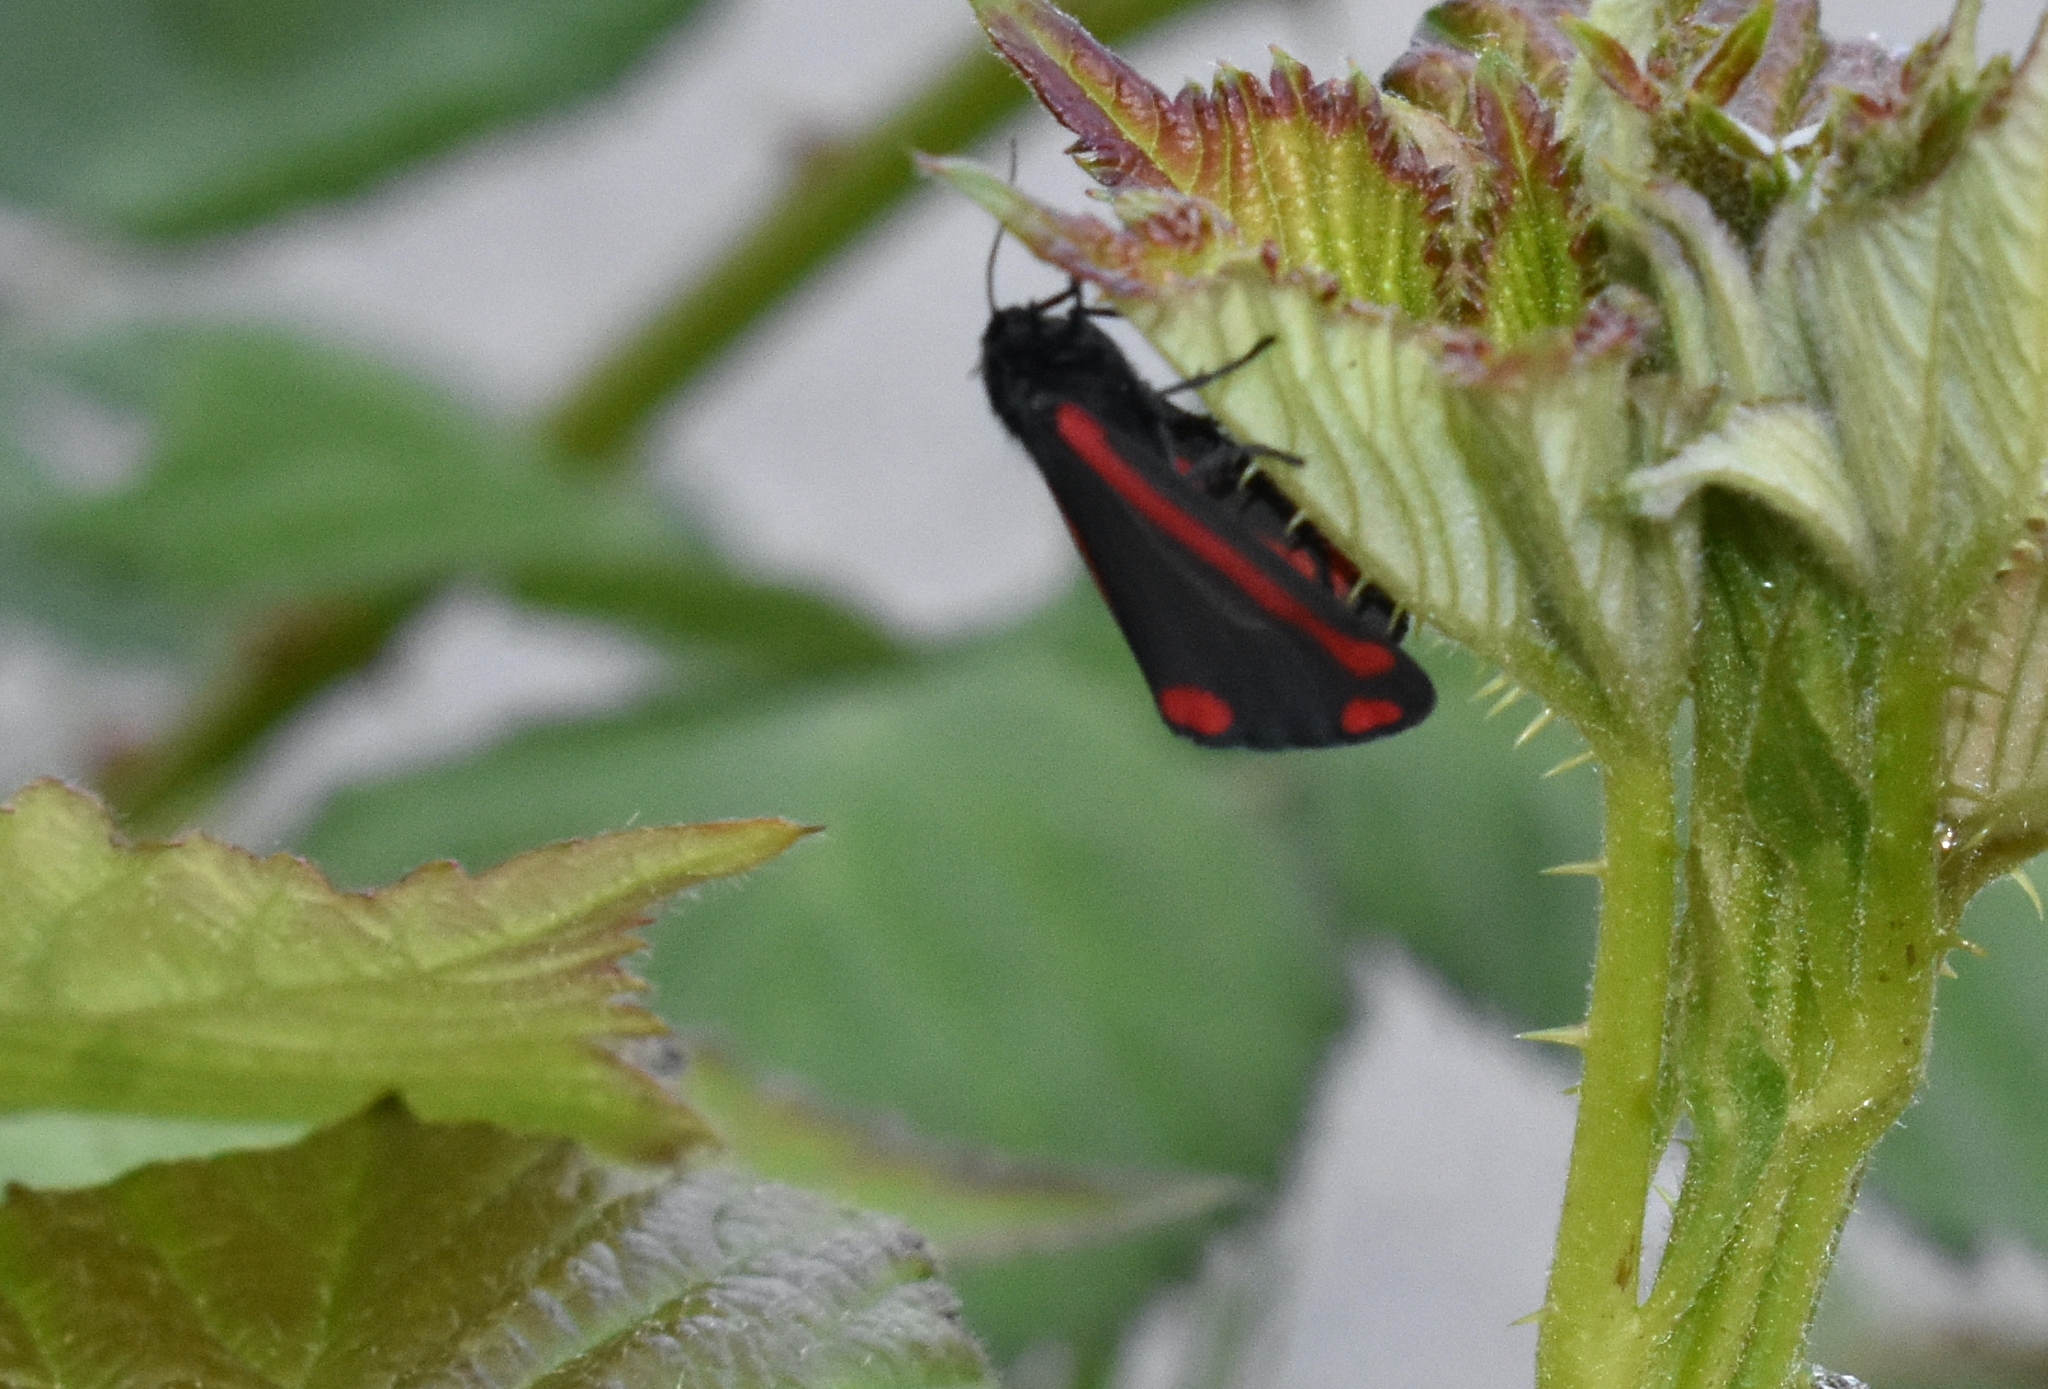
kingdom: Animalia
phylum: Arthropoda
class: Insecta
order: Lepidoptera
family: Erebidae
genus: Tyria
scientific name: Tyria jacobaeae
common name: Cinnabar
